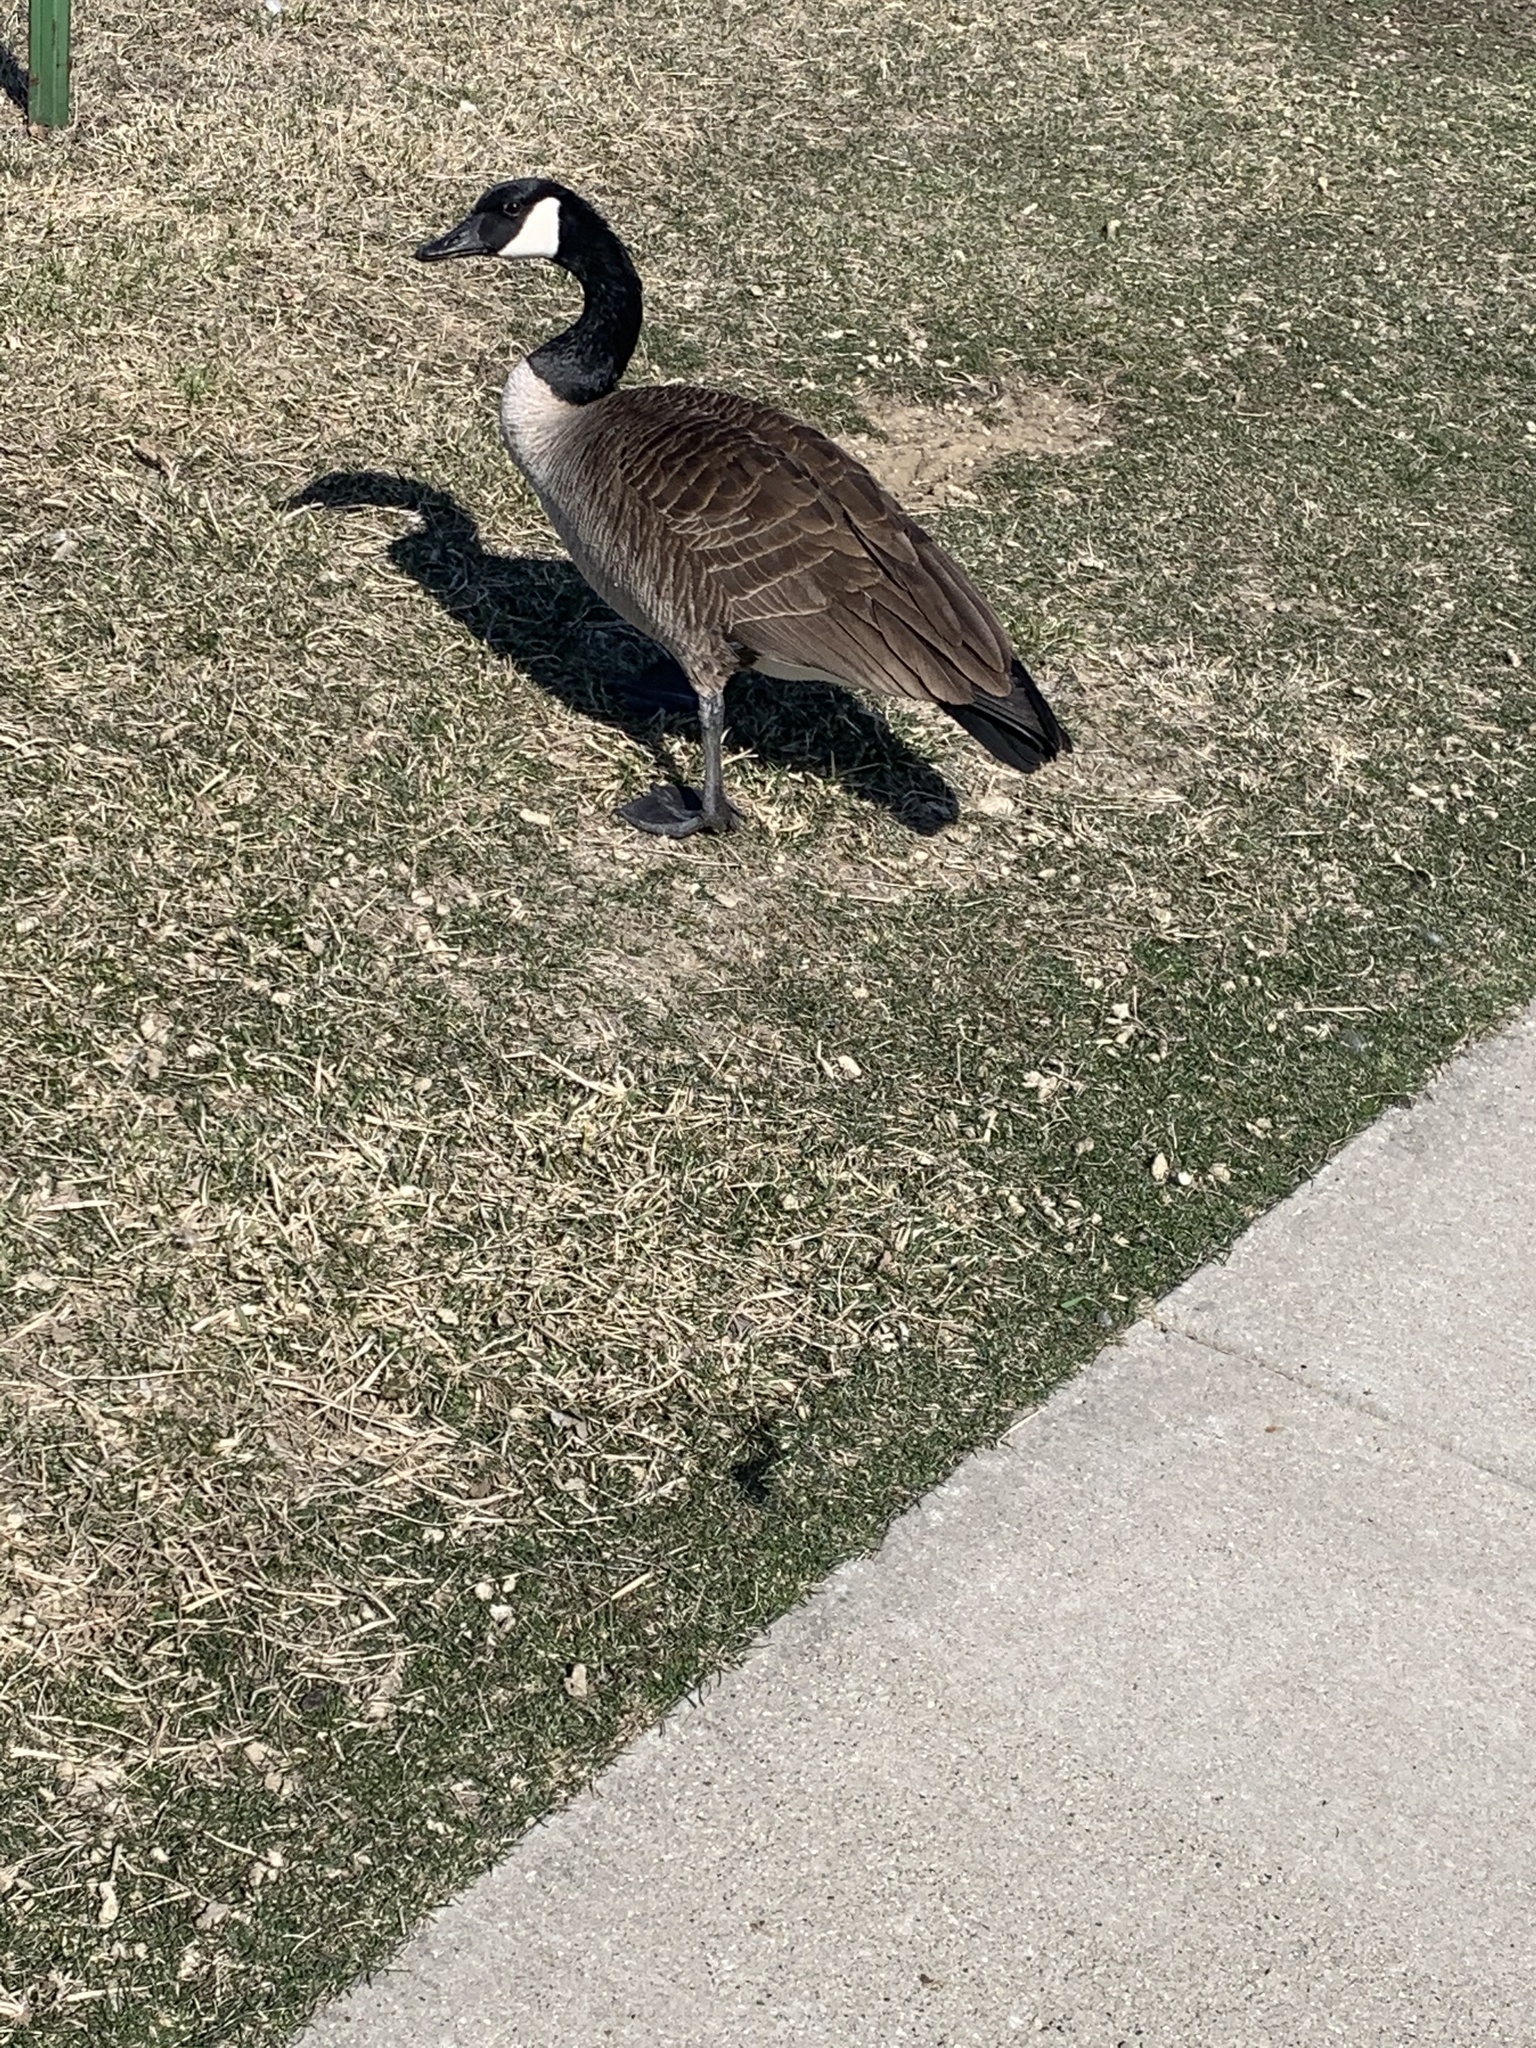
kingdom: Animalia
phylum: Chordata
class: Aves
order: Anseriformes
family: Anatidae
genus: Branta
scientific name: Branta canadensis
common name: Canada goose
